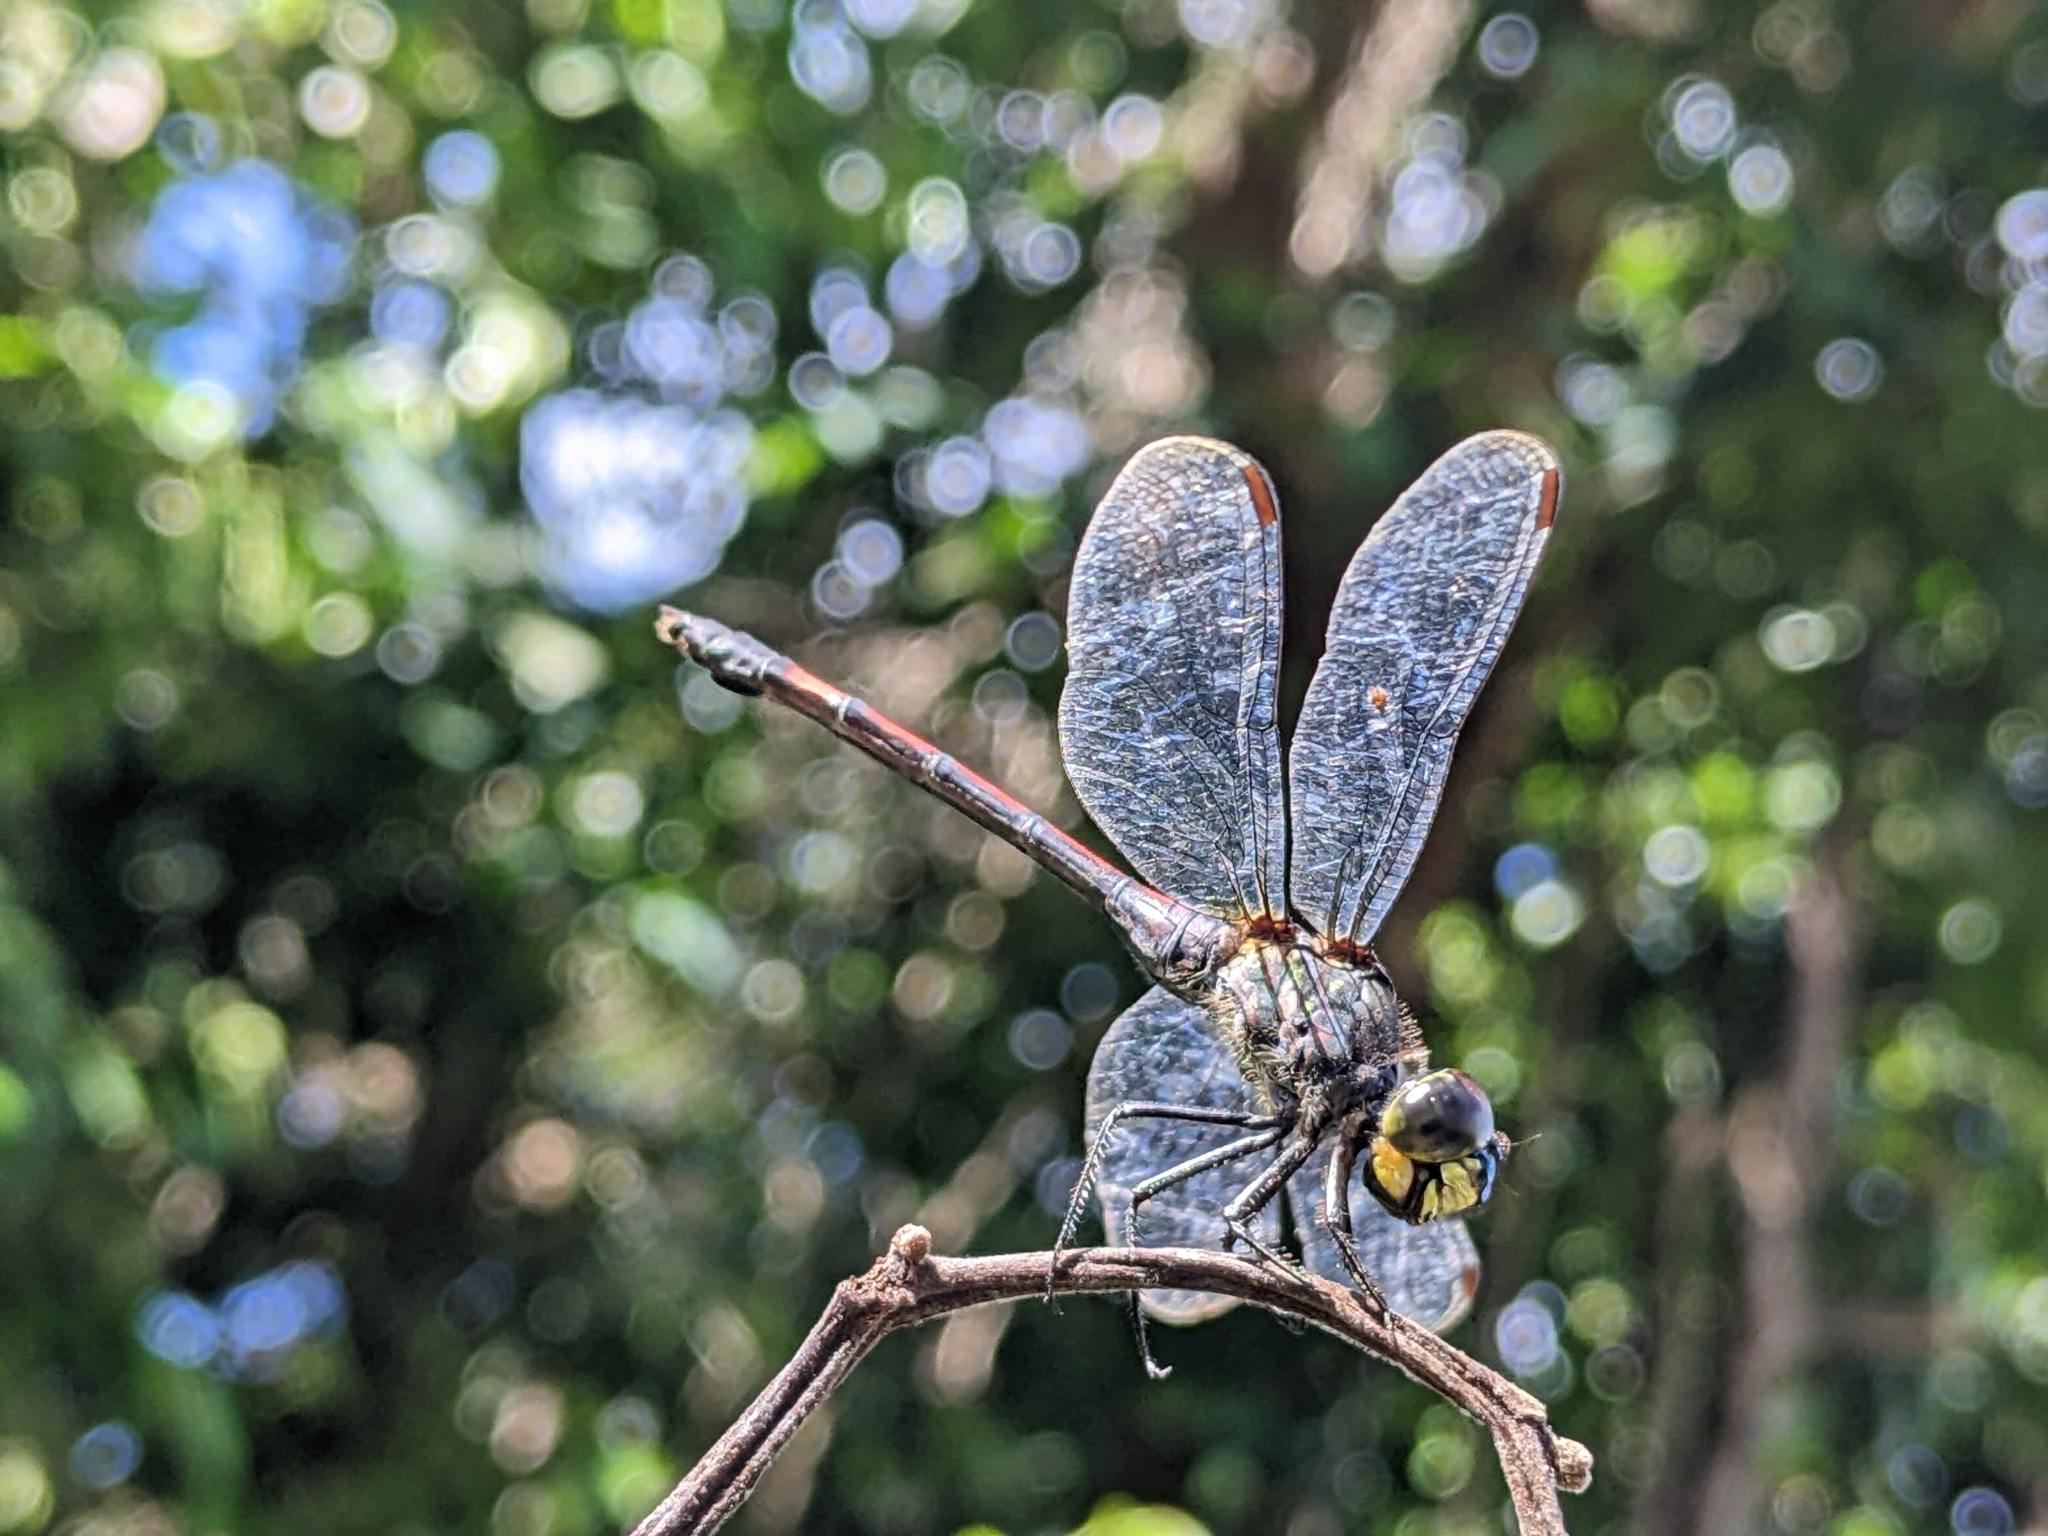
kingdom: Animalia
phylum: Arthropoda
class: Insecta
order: Odonata
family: Libellulidae
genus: Agrionoptera
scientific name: Agrionoptera insignis
